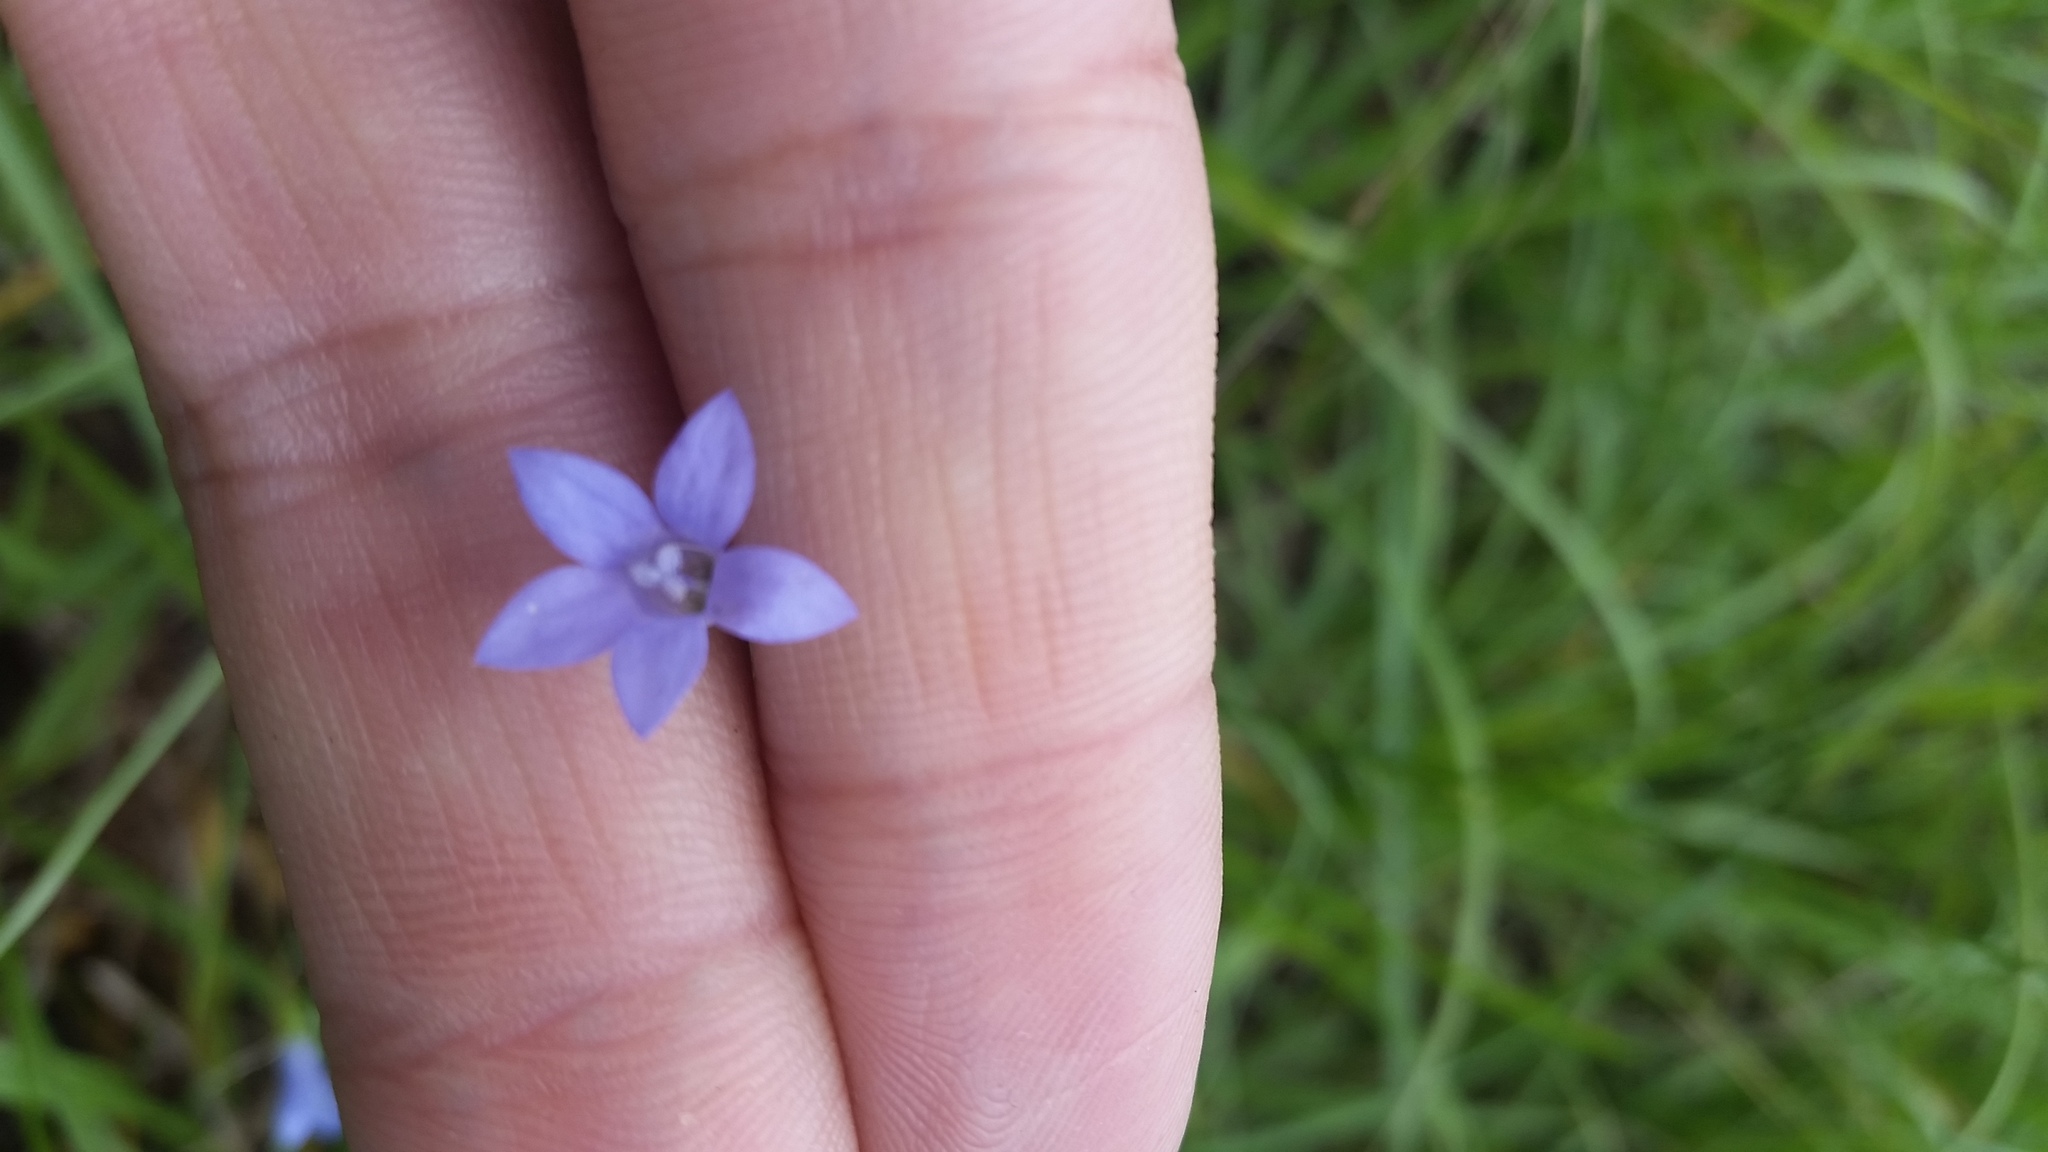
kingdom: Plantae
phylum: Tracheophyta
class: Magnoliopsida
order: Asterales
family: Campanulaceae
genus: Wahlenbergia
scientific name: Wahlenbergia marginata
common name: Southern rockbell
